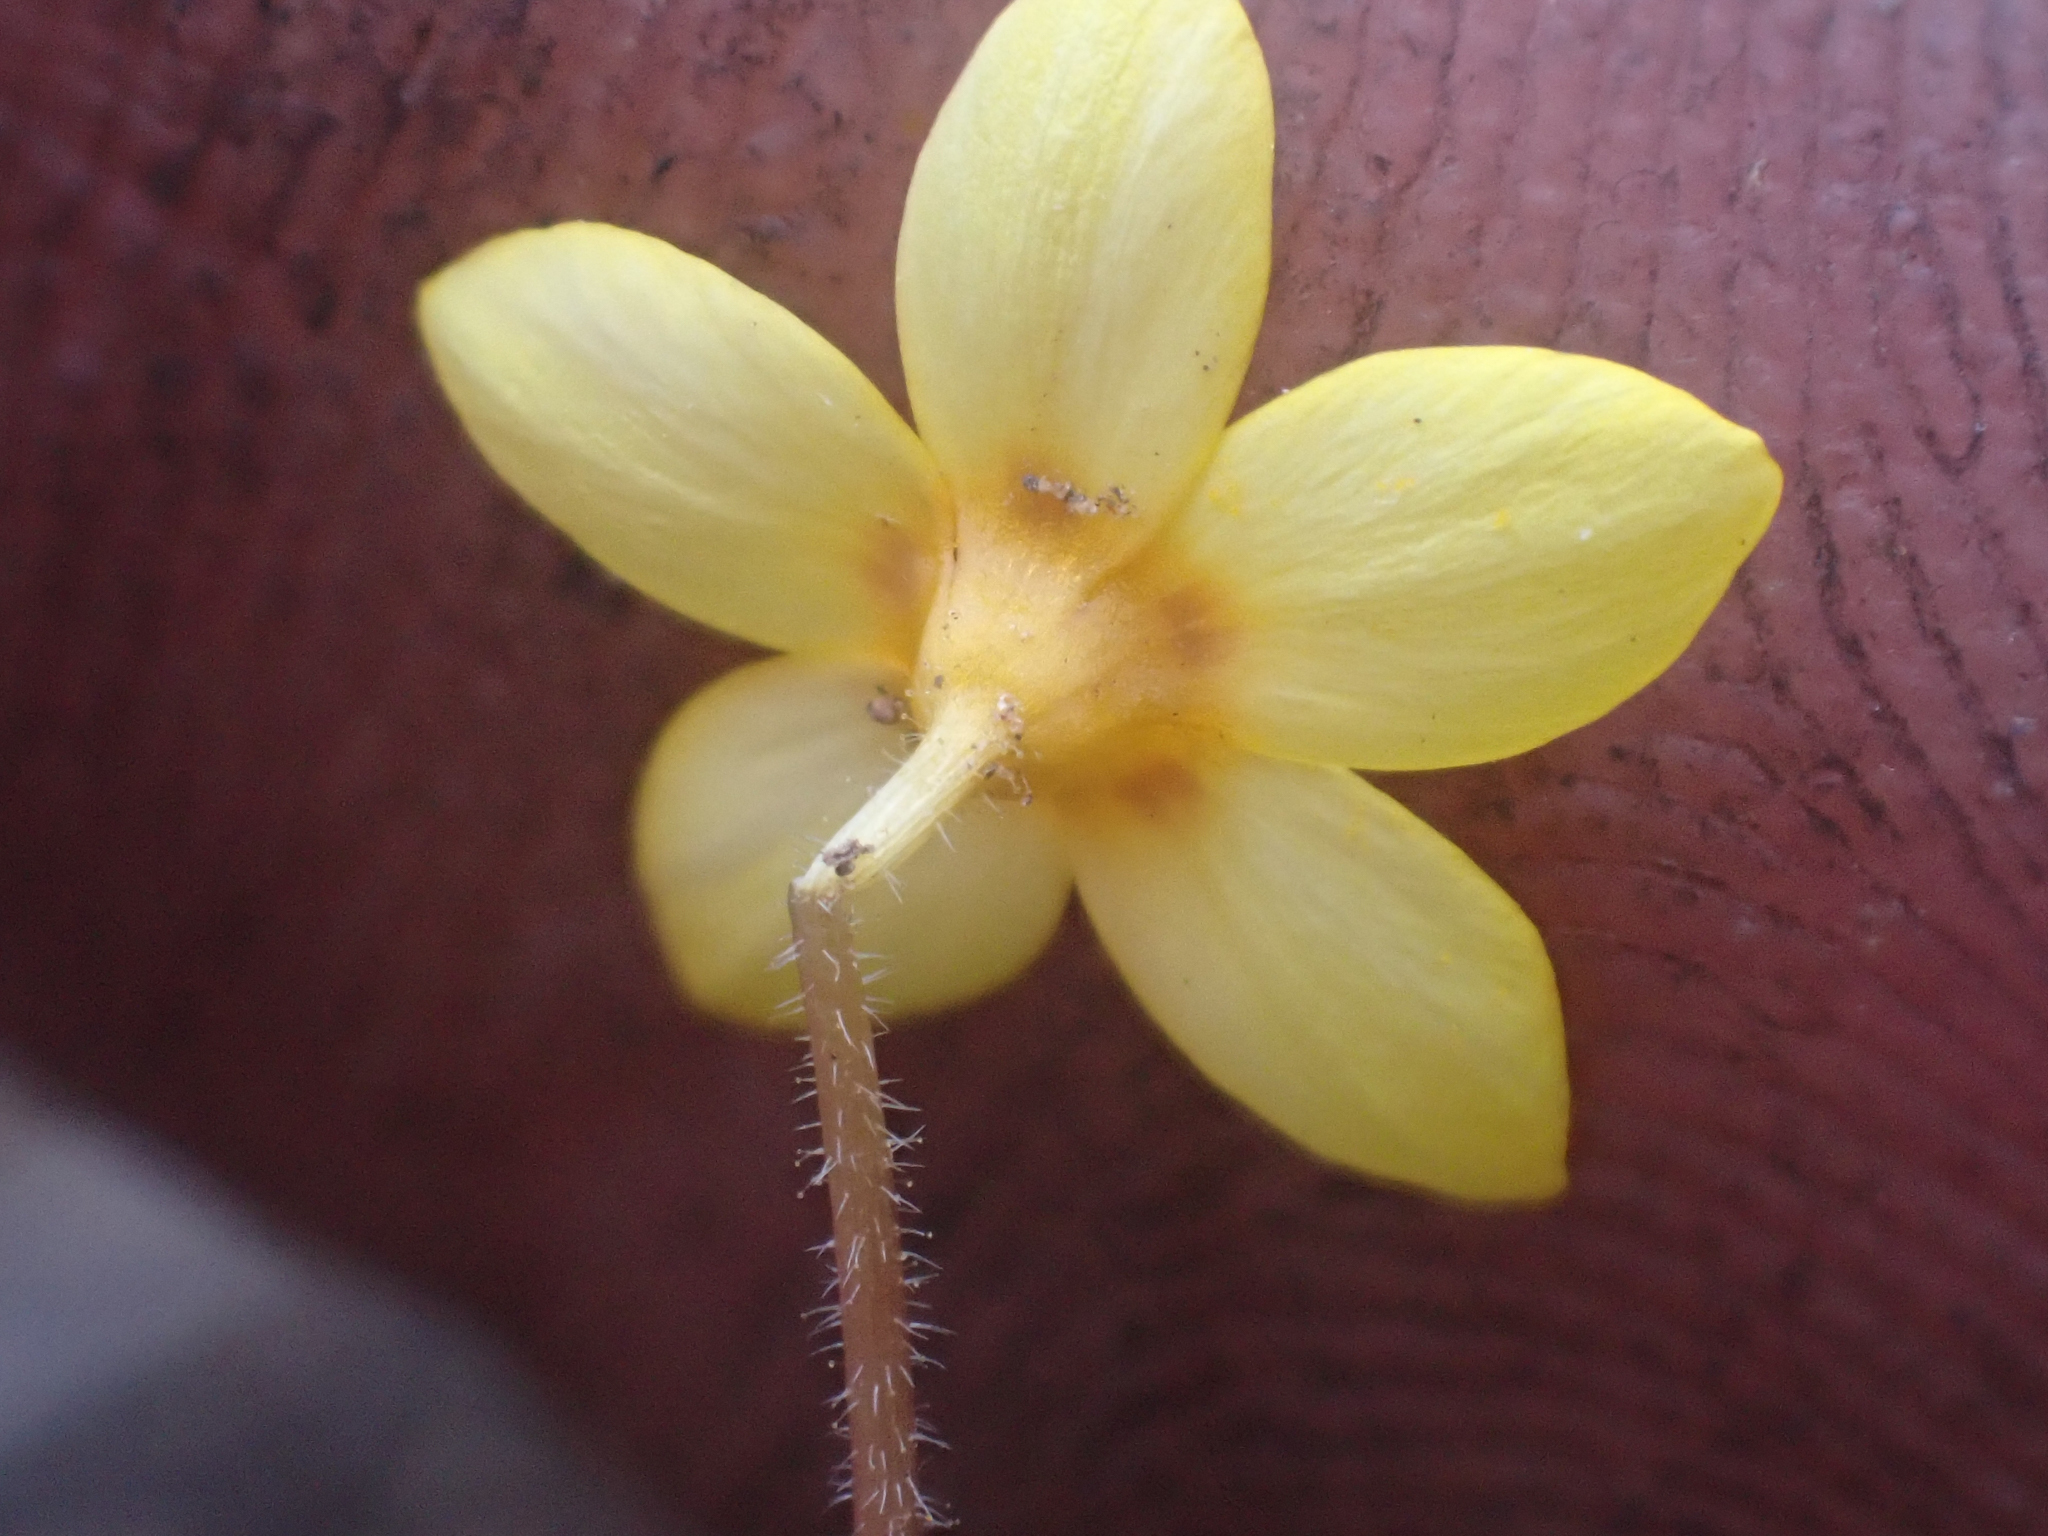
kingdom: Plantae
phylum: Tracheophyta
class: Magnoliopsida
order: Ericales
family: Polemoniaceae
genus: Leptosiphon
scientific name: Leptosiphon parviflorus
